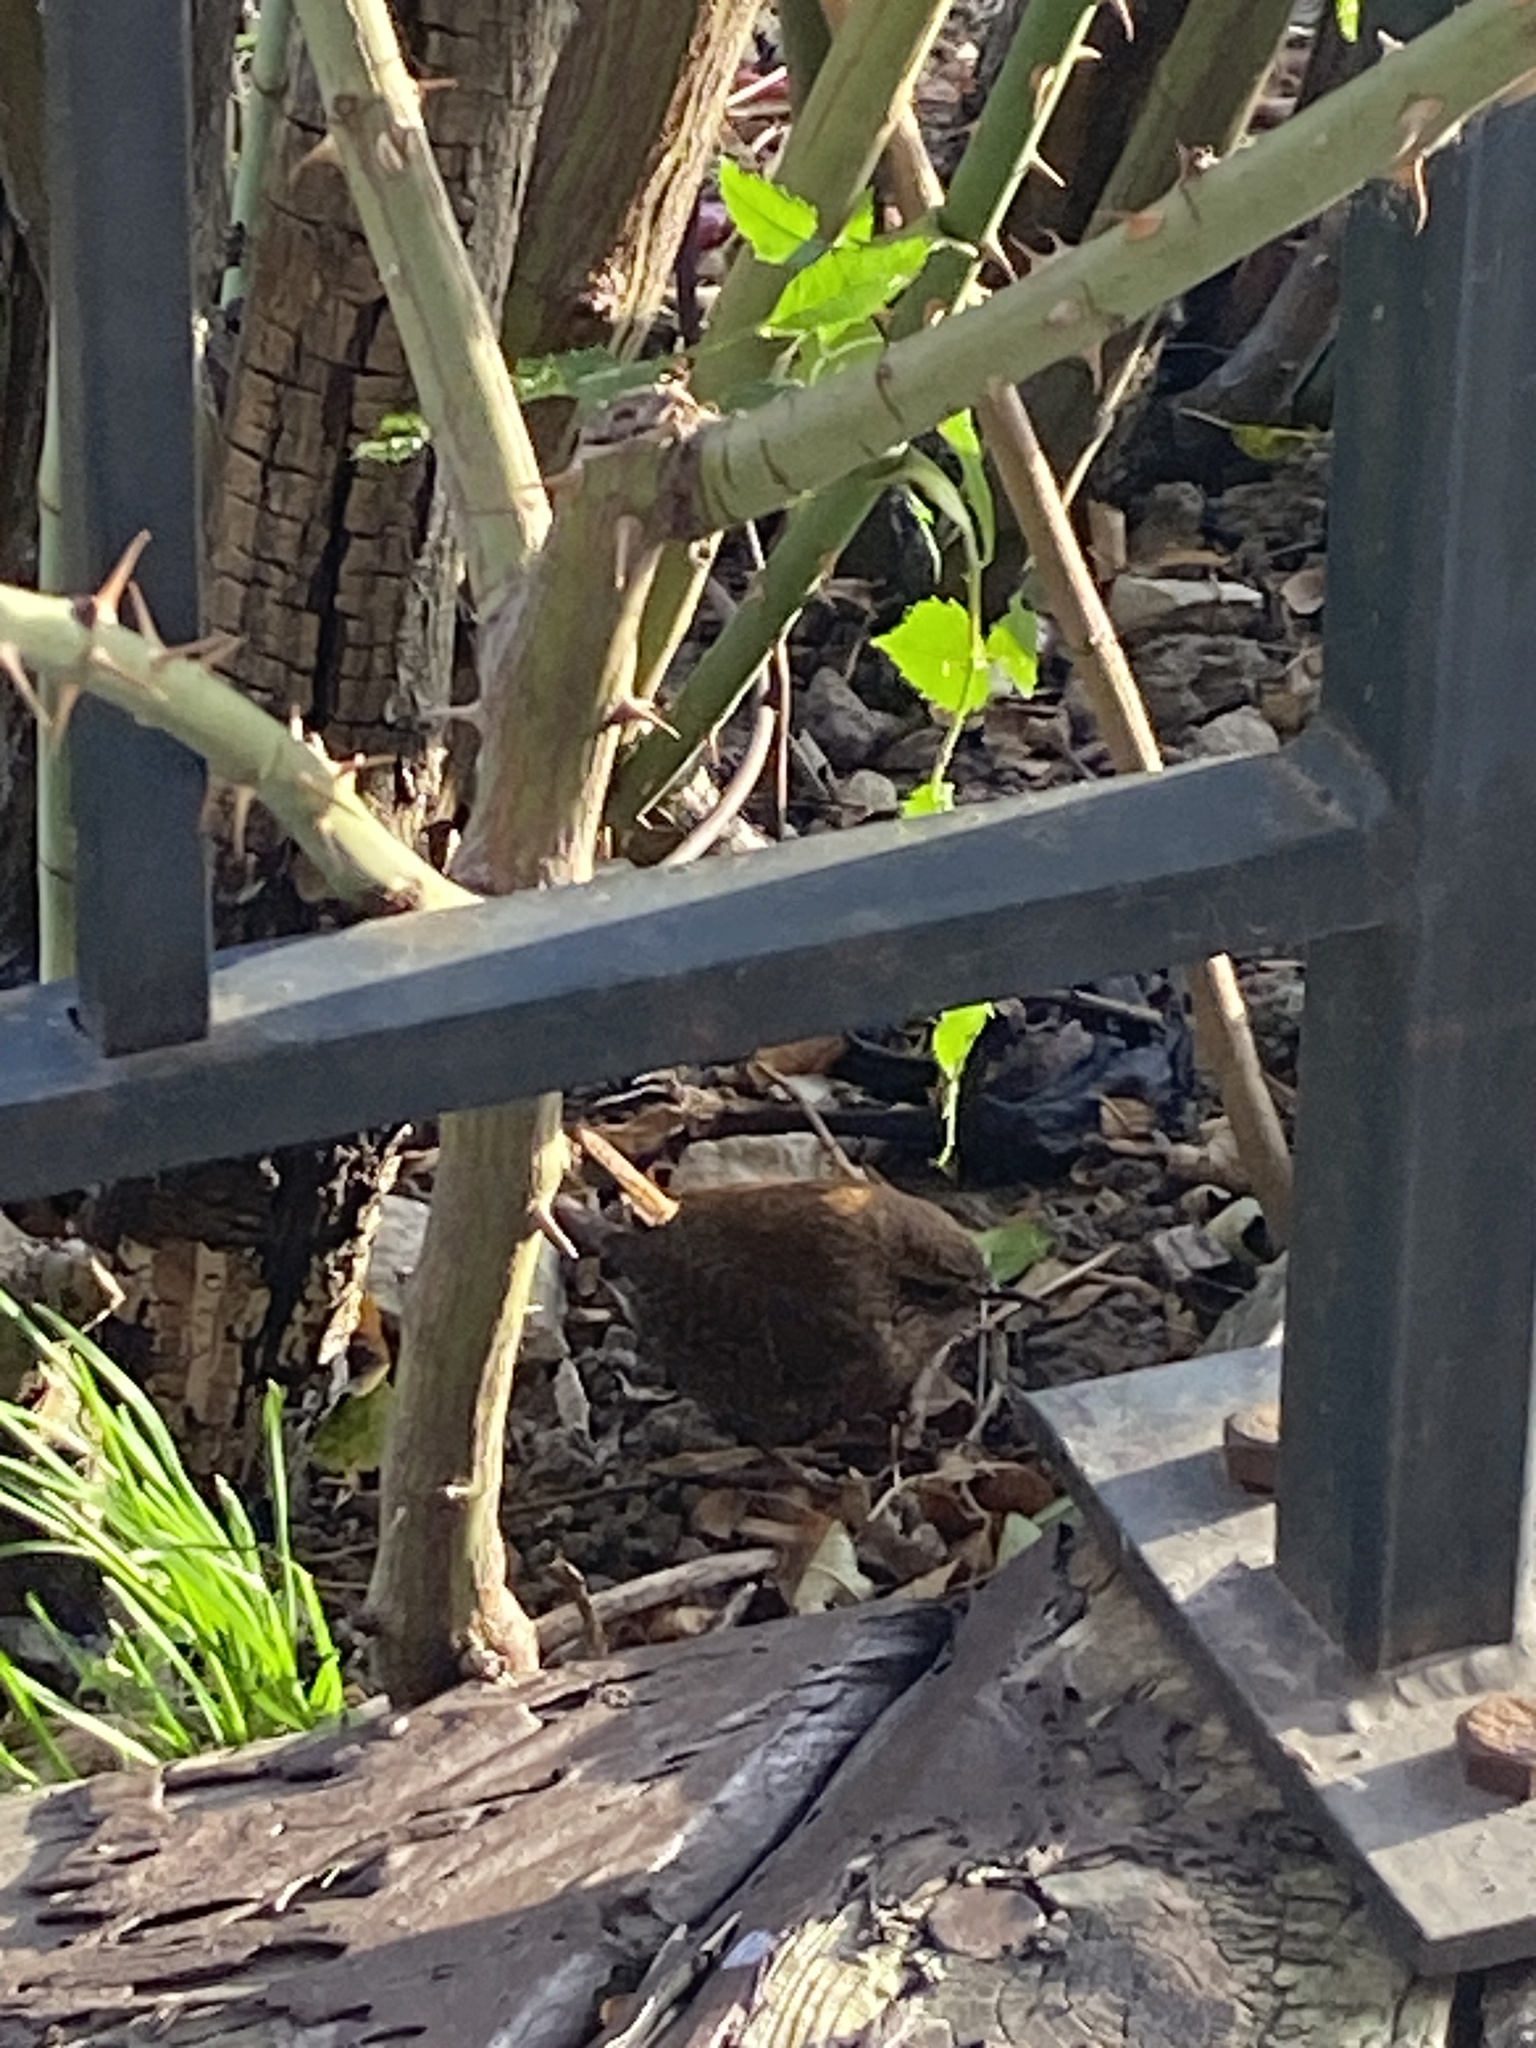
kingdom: Animalia
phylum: Chordata
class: Aves
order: Passeriformes
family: Troglodytidae
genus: Troglodytes
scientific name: Troglodytes hiemalis
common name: Winter wren
